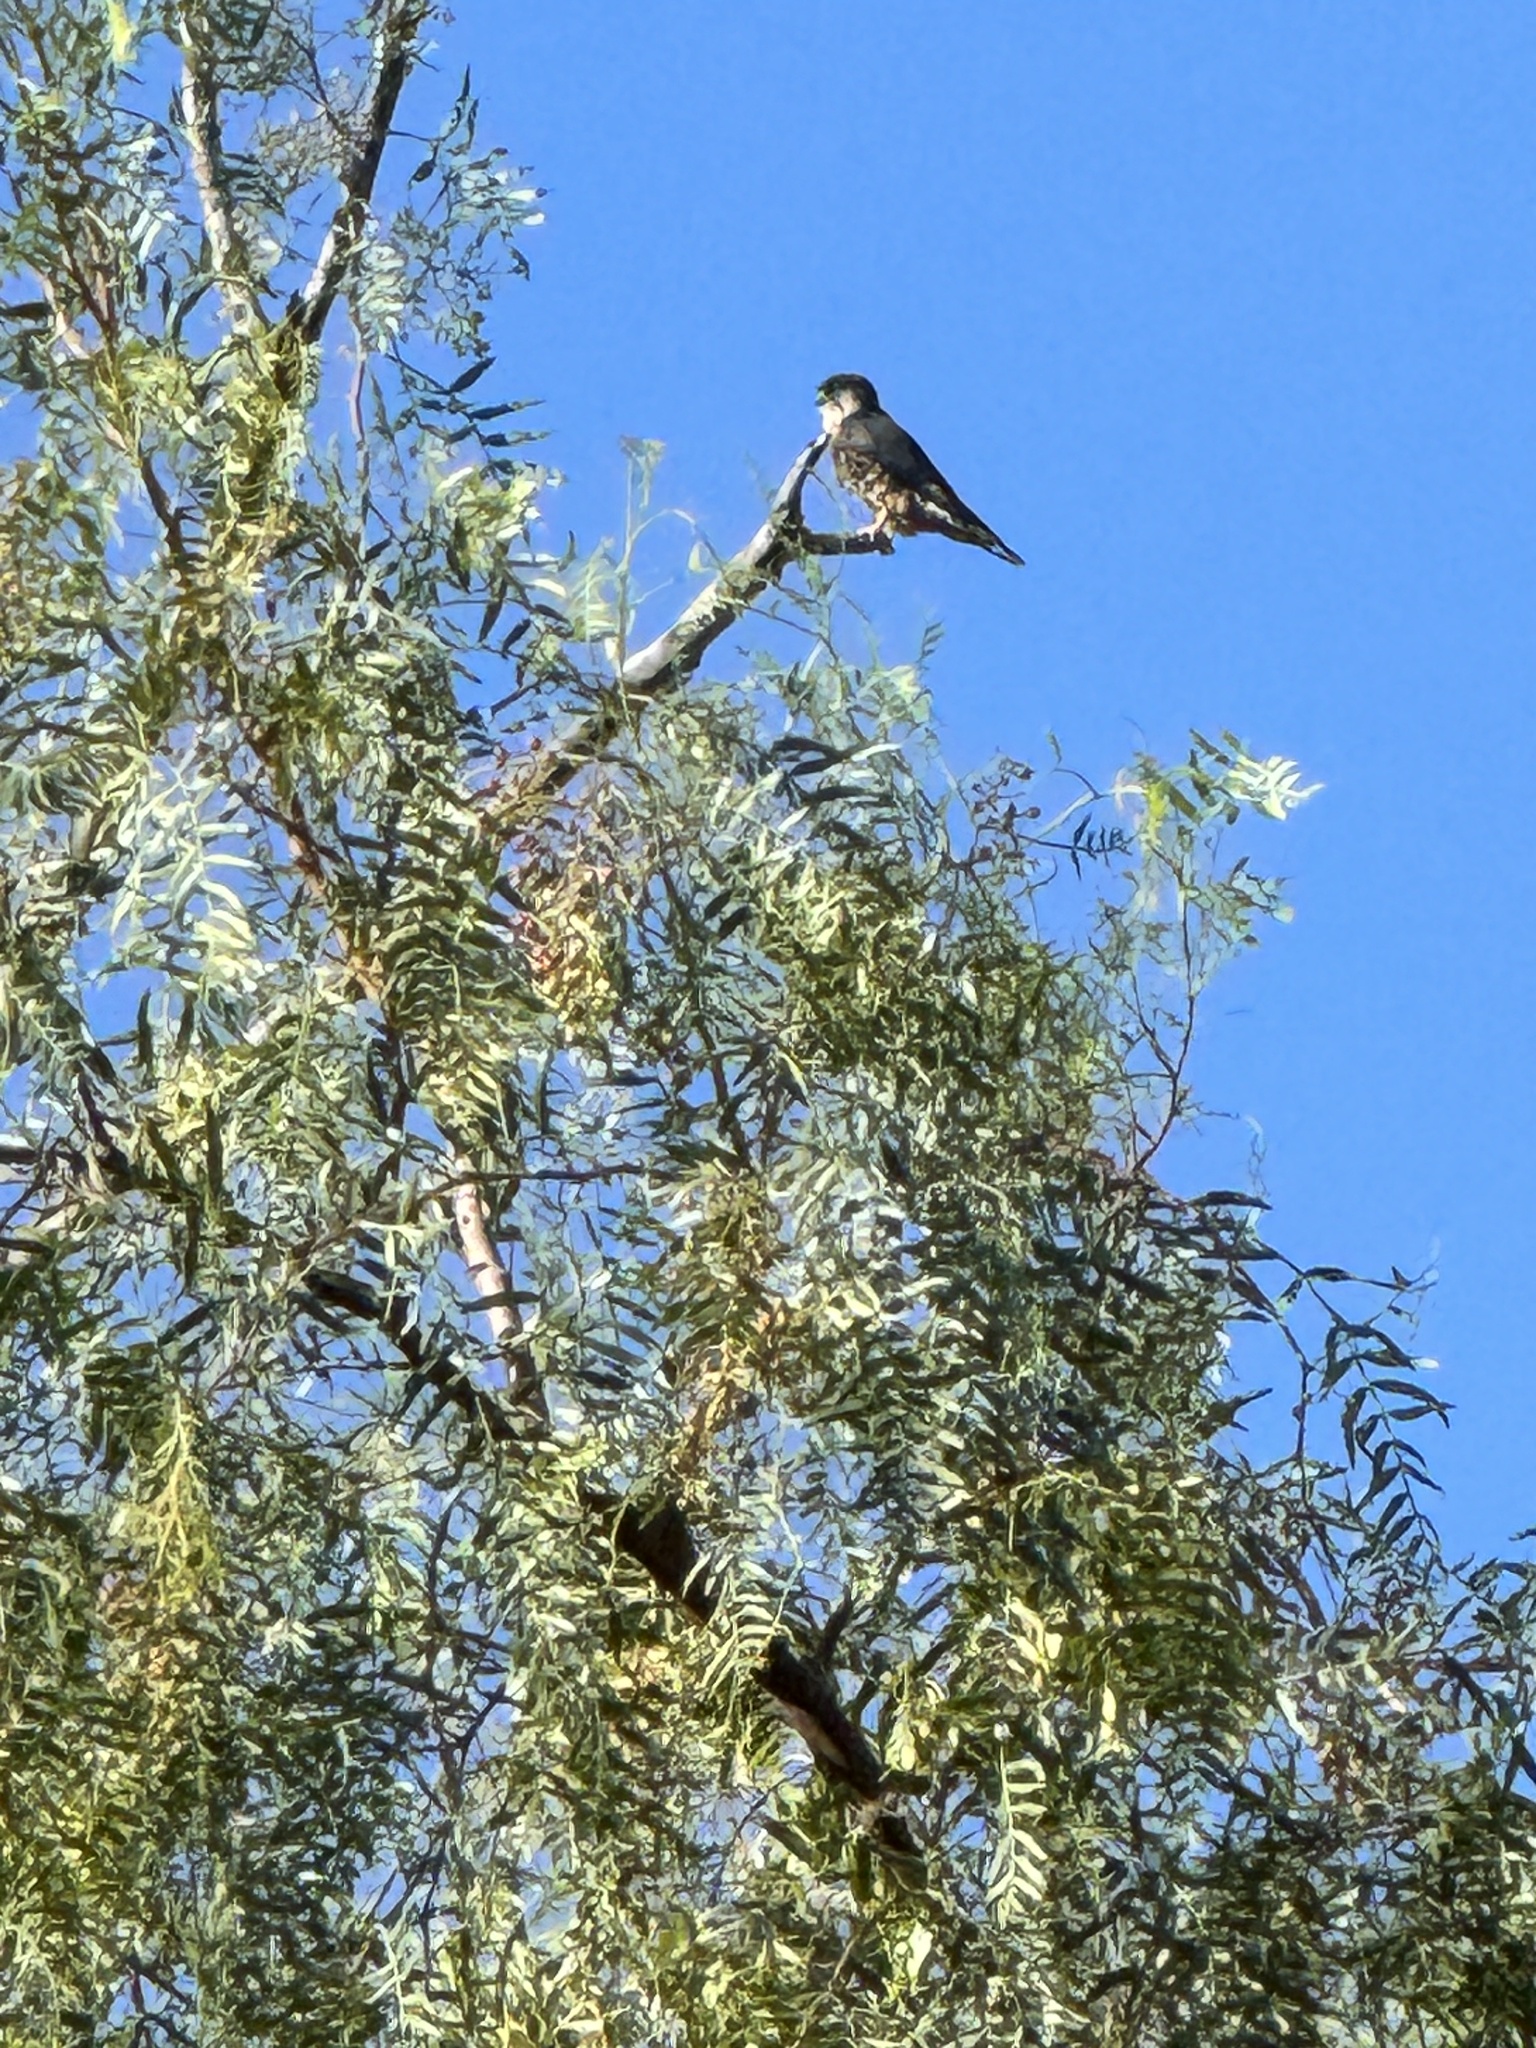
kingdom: Animalia
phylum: Chordata
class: Aves
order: Falconiformes
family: Falconidae
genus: Falco
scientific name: Falco columbarius
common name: Merlin
